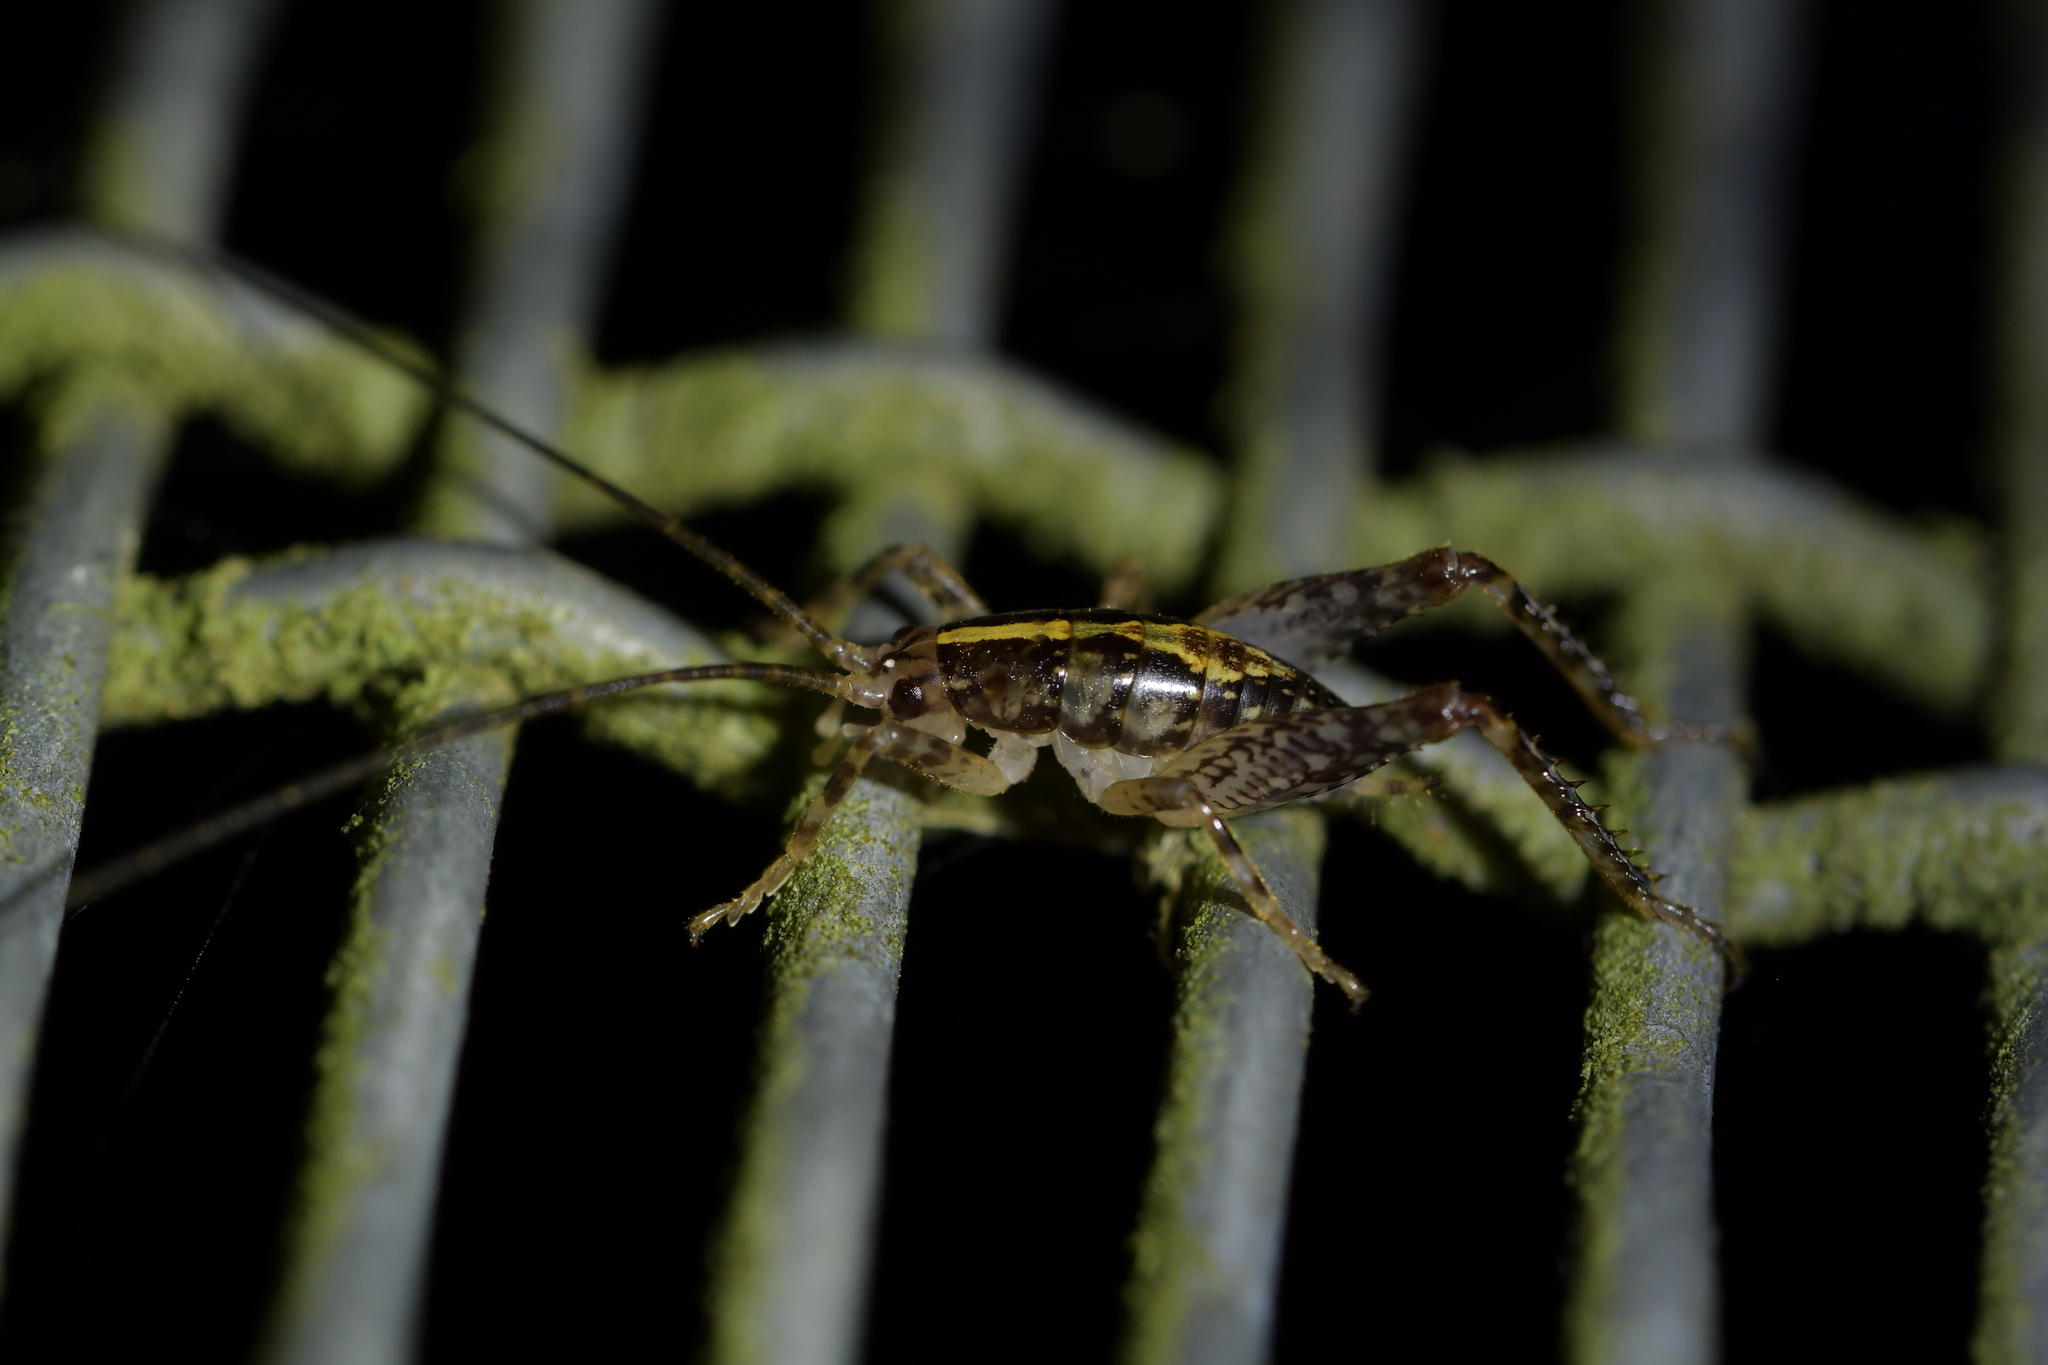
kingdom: Animalia
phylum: Arthropoda
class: Insecta
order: Orthoptera
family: Rhaphidophoridae
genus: Talitropsis
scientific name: Talitropsis sedilloti
